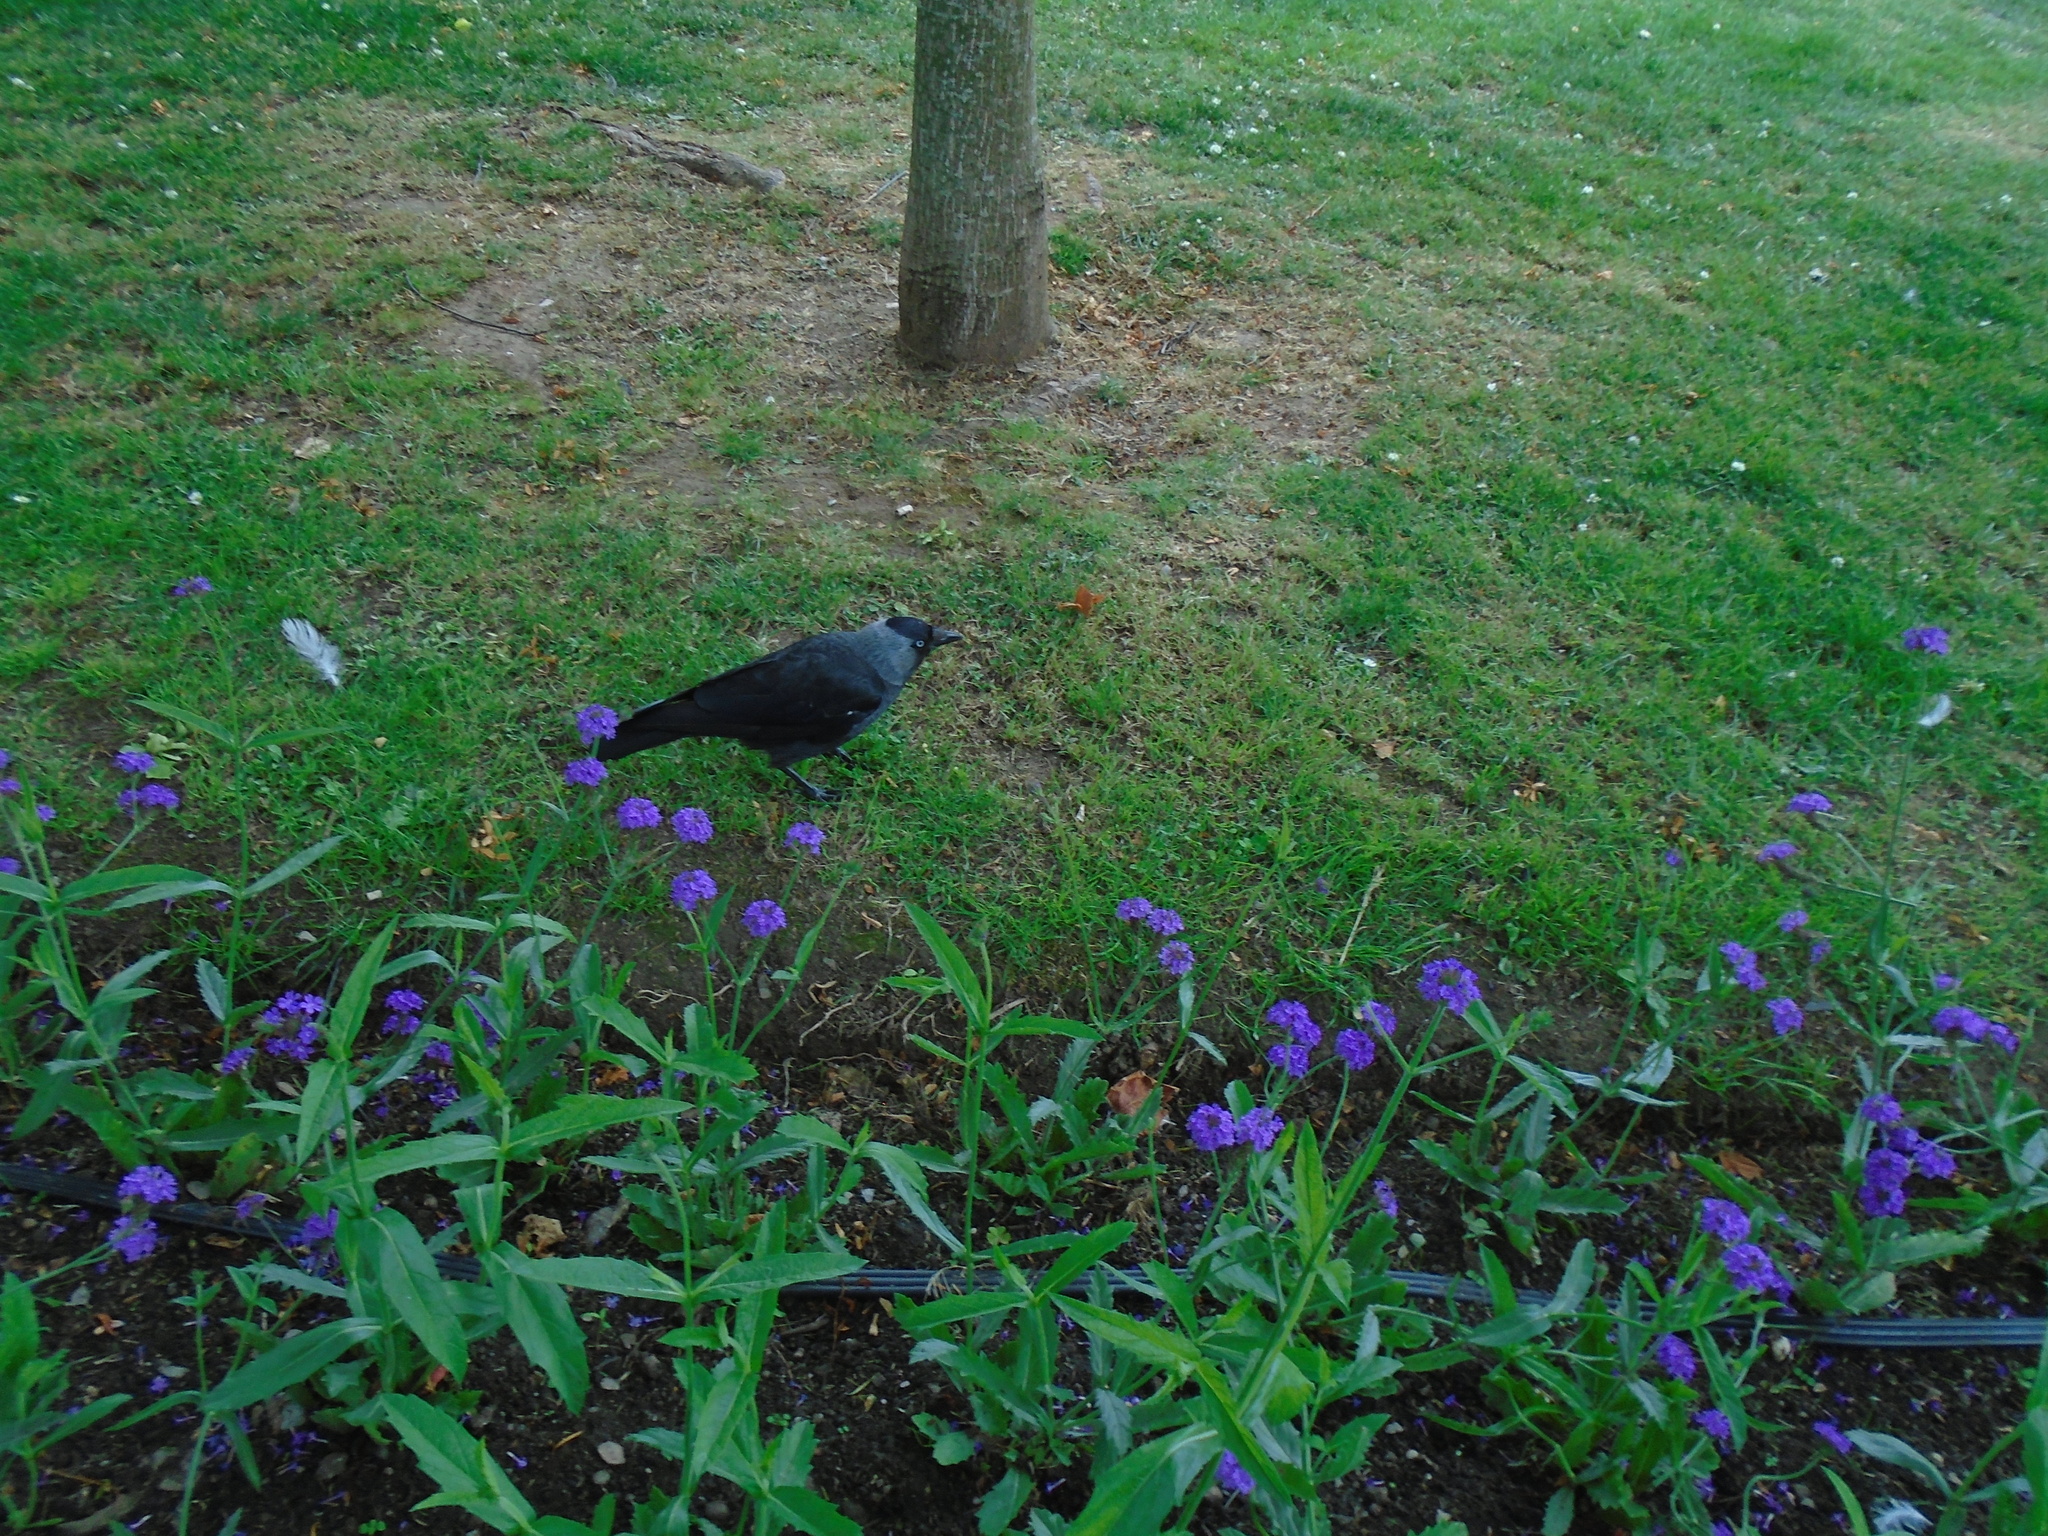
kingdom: Animalia
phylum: Chordata
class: Aves
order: Passeriformes
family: Corvidae
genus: Coloeus
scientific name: Coloeus monedula
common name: Western jackdaw
